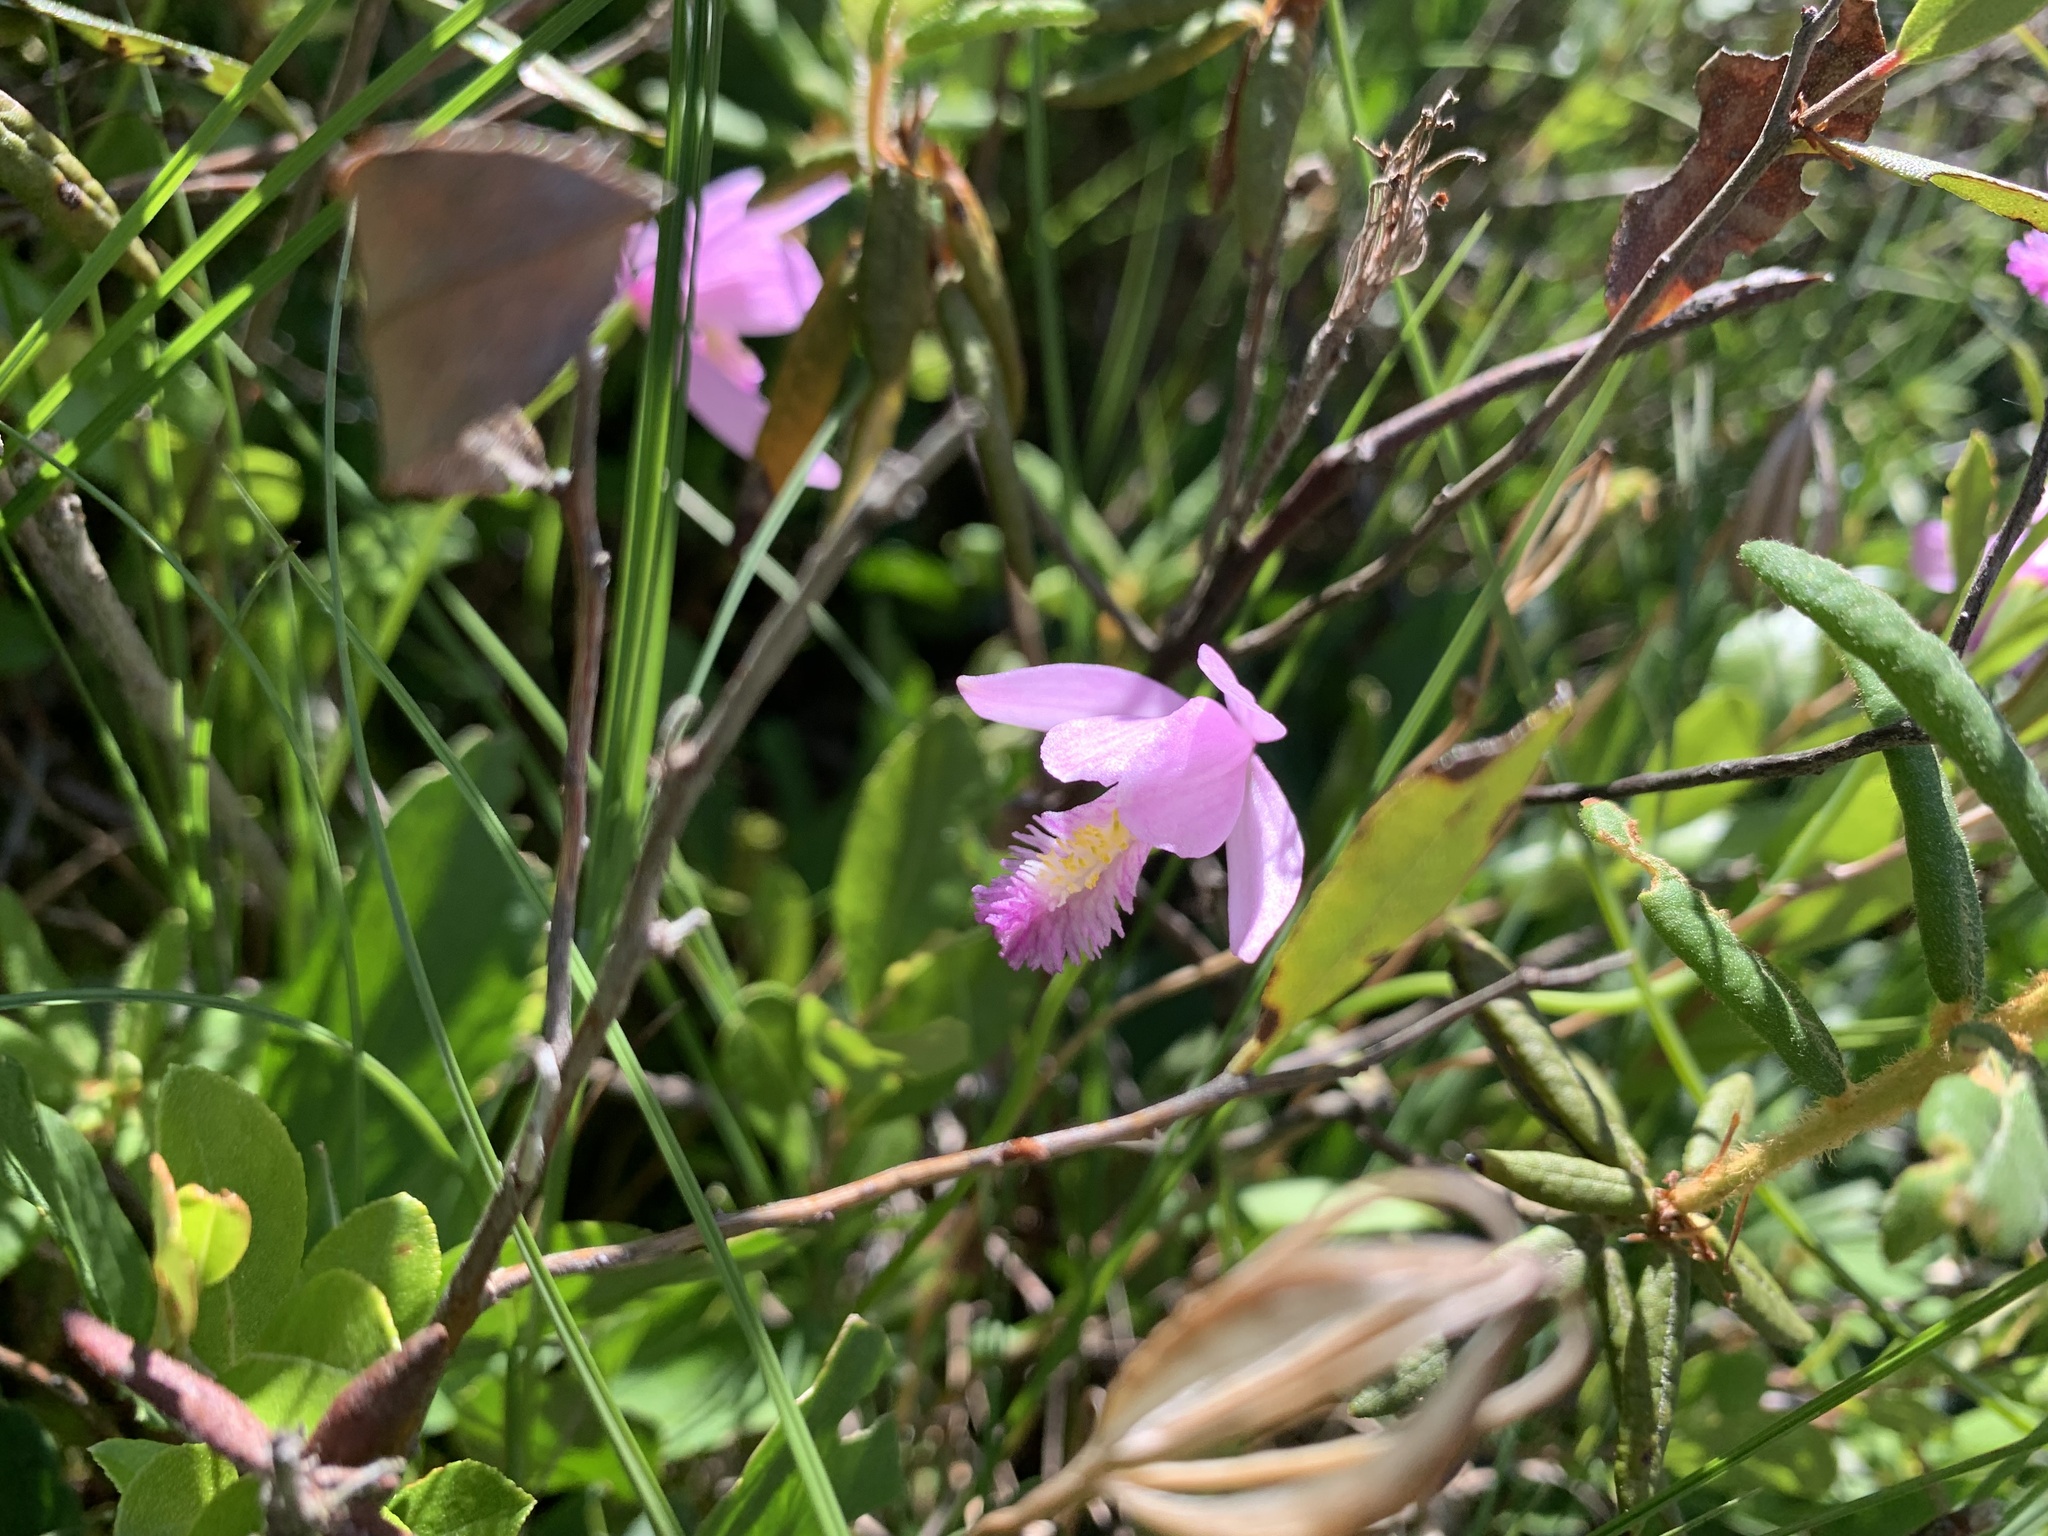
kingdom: Plantae
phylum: Tracheophyta
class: Liliopsida
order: Asparagales
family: Orchidaceae
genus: Pogonia
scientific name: Pogonia ophioglossoides
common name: Rose pogonia
